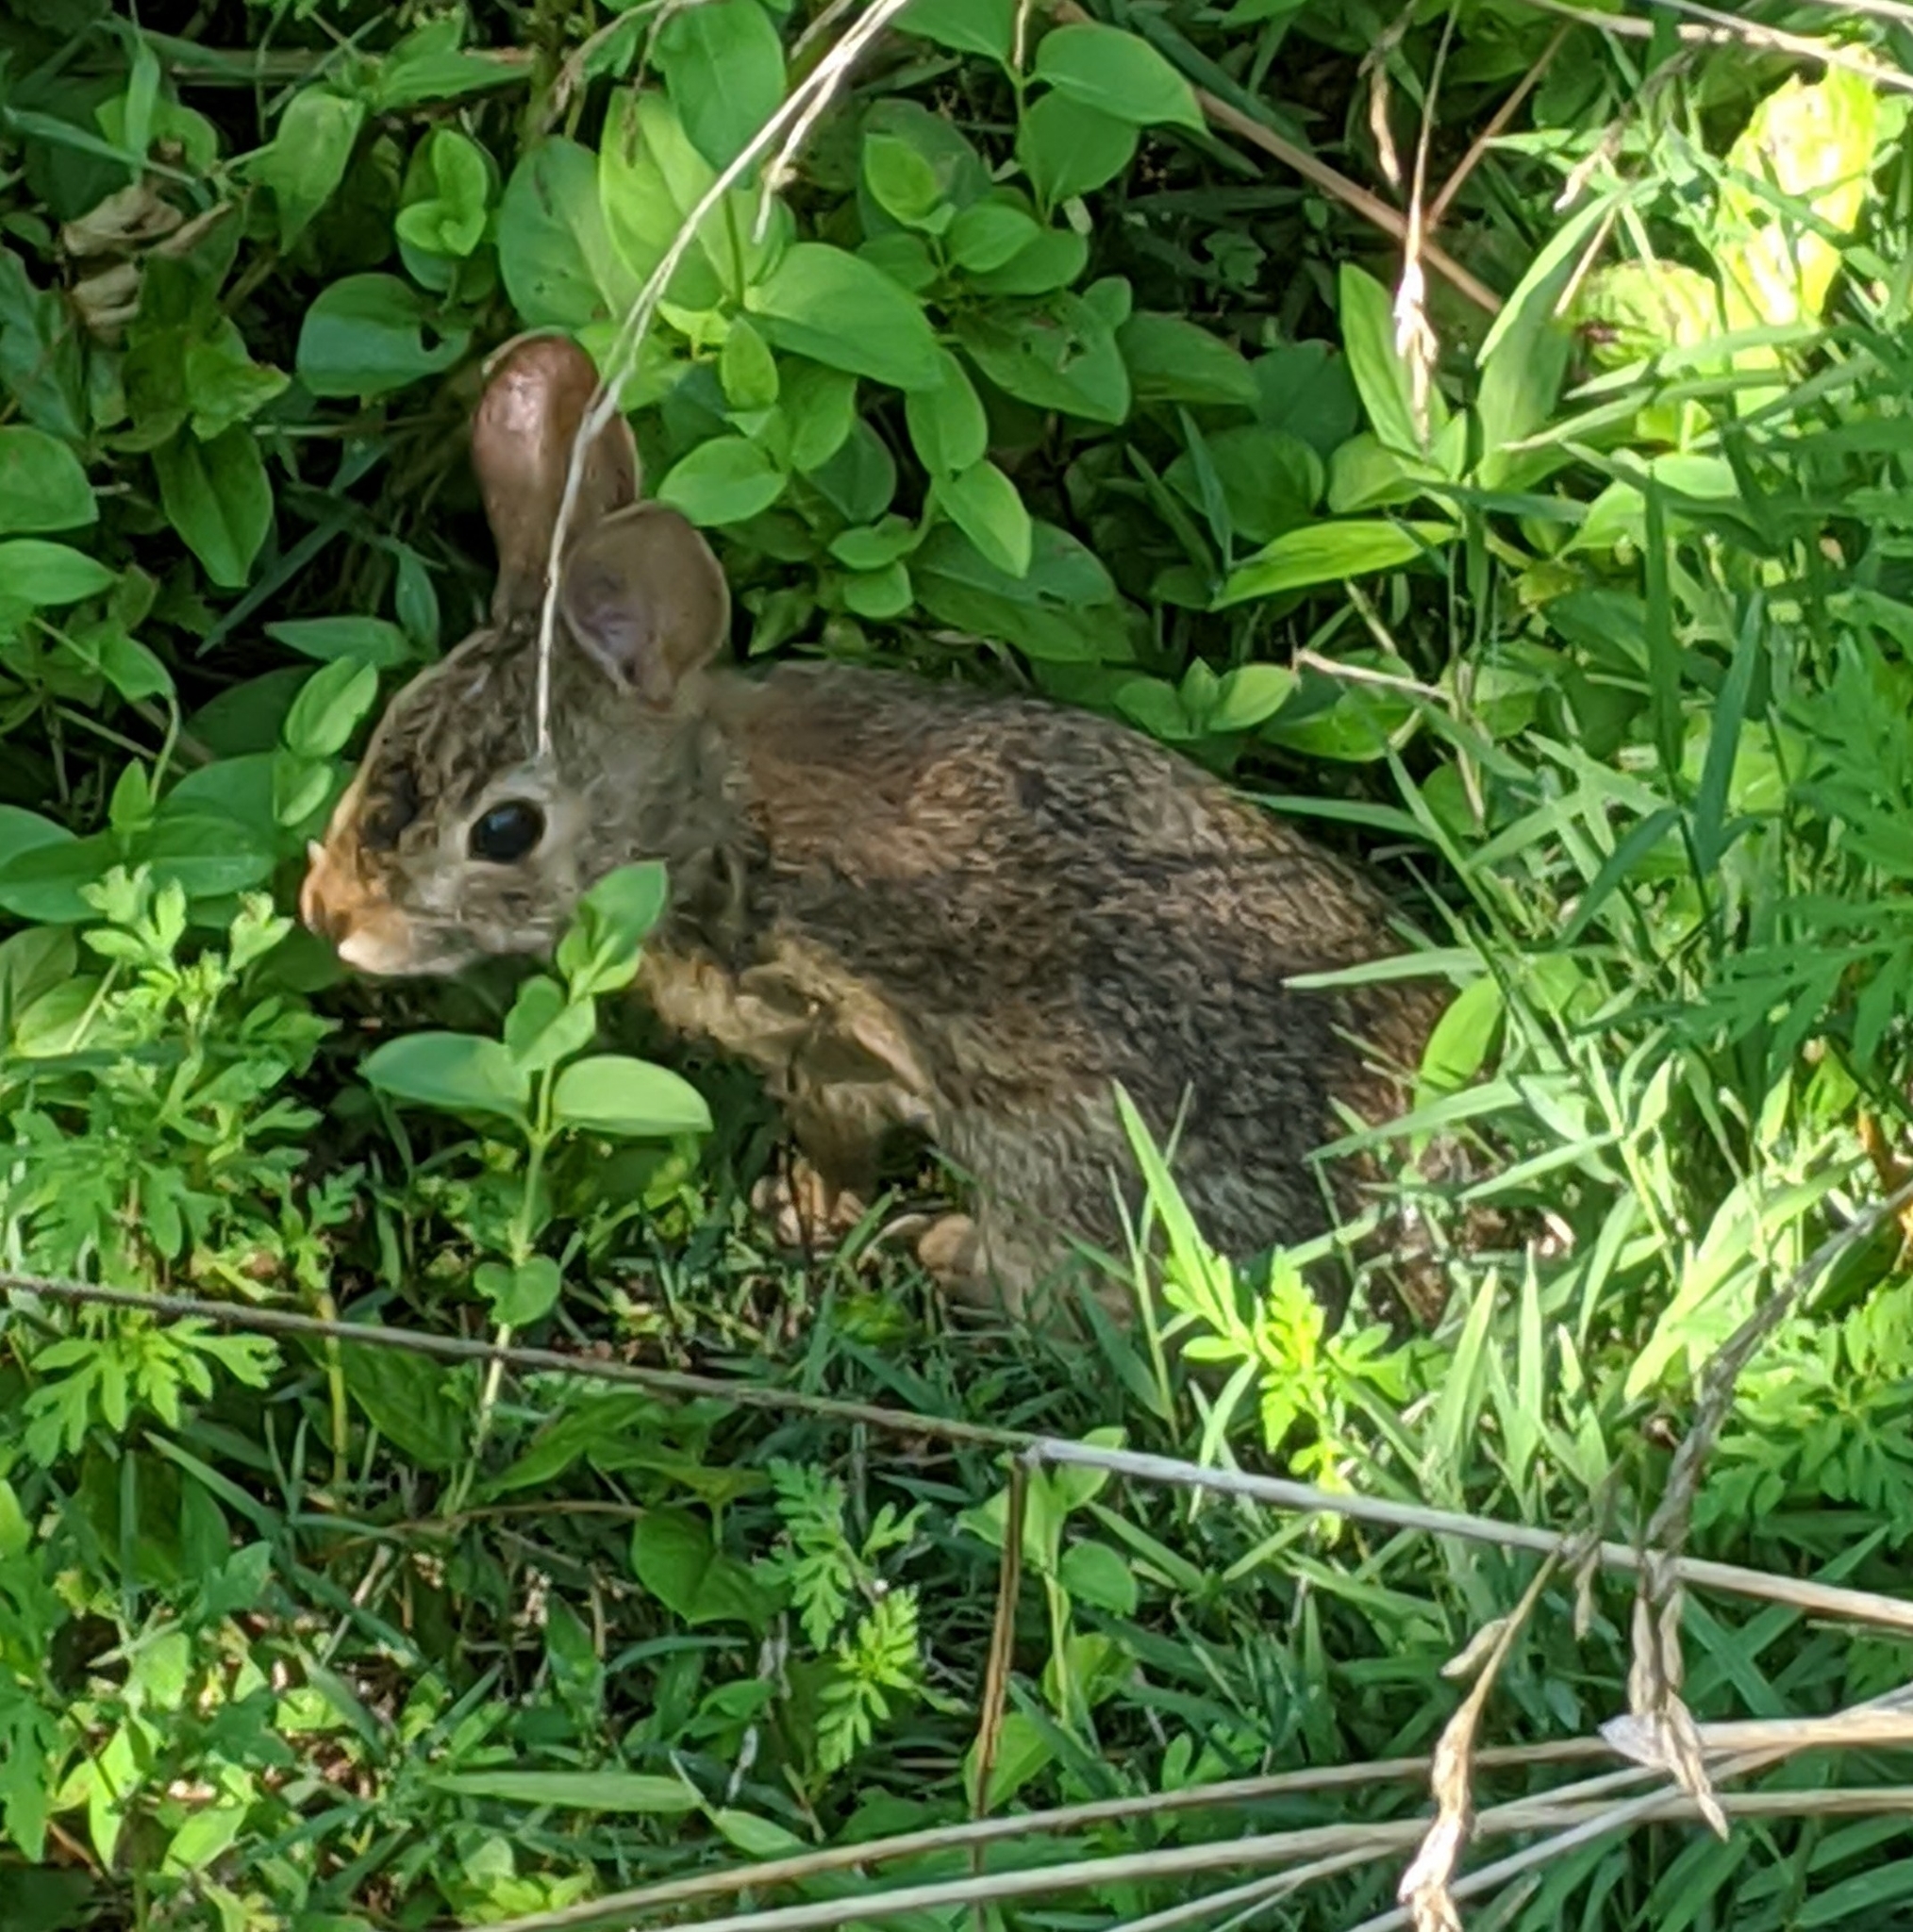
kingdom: Animalia
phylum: Chordata
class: Mammalia
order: Lagomorpha
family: Leporidae
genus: Sylvilagus
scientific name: Sylvilagus floridanus
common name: Eastern cottontail
